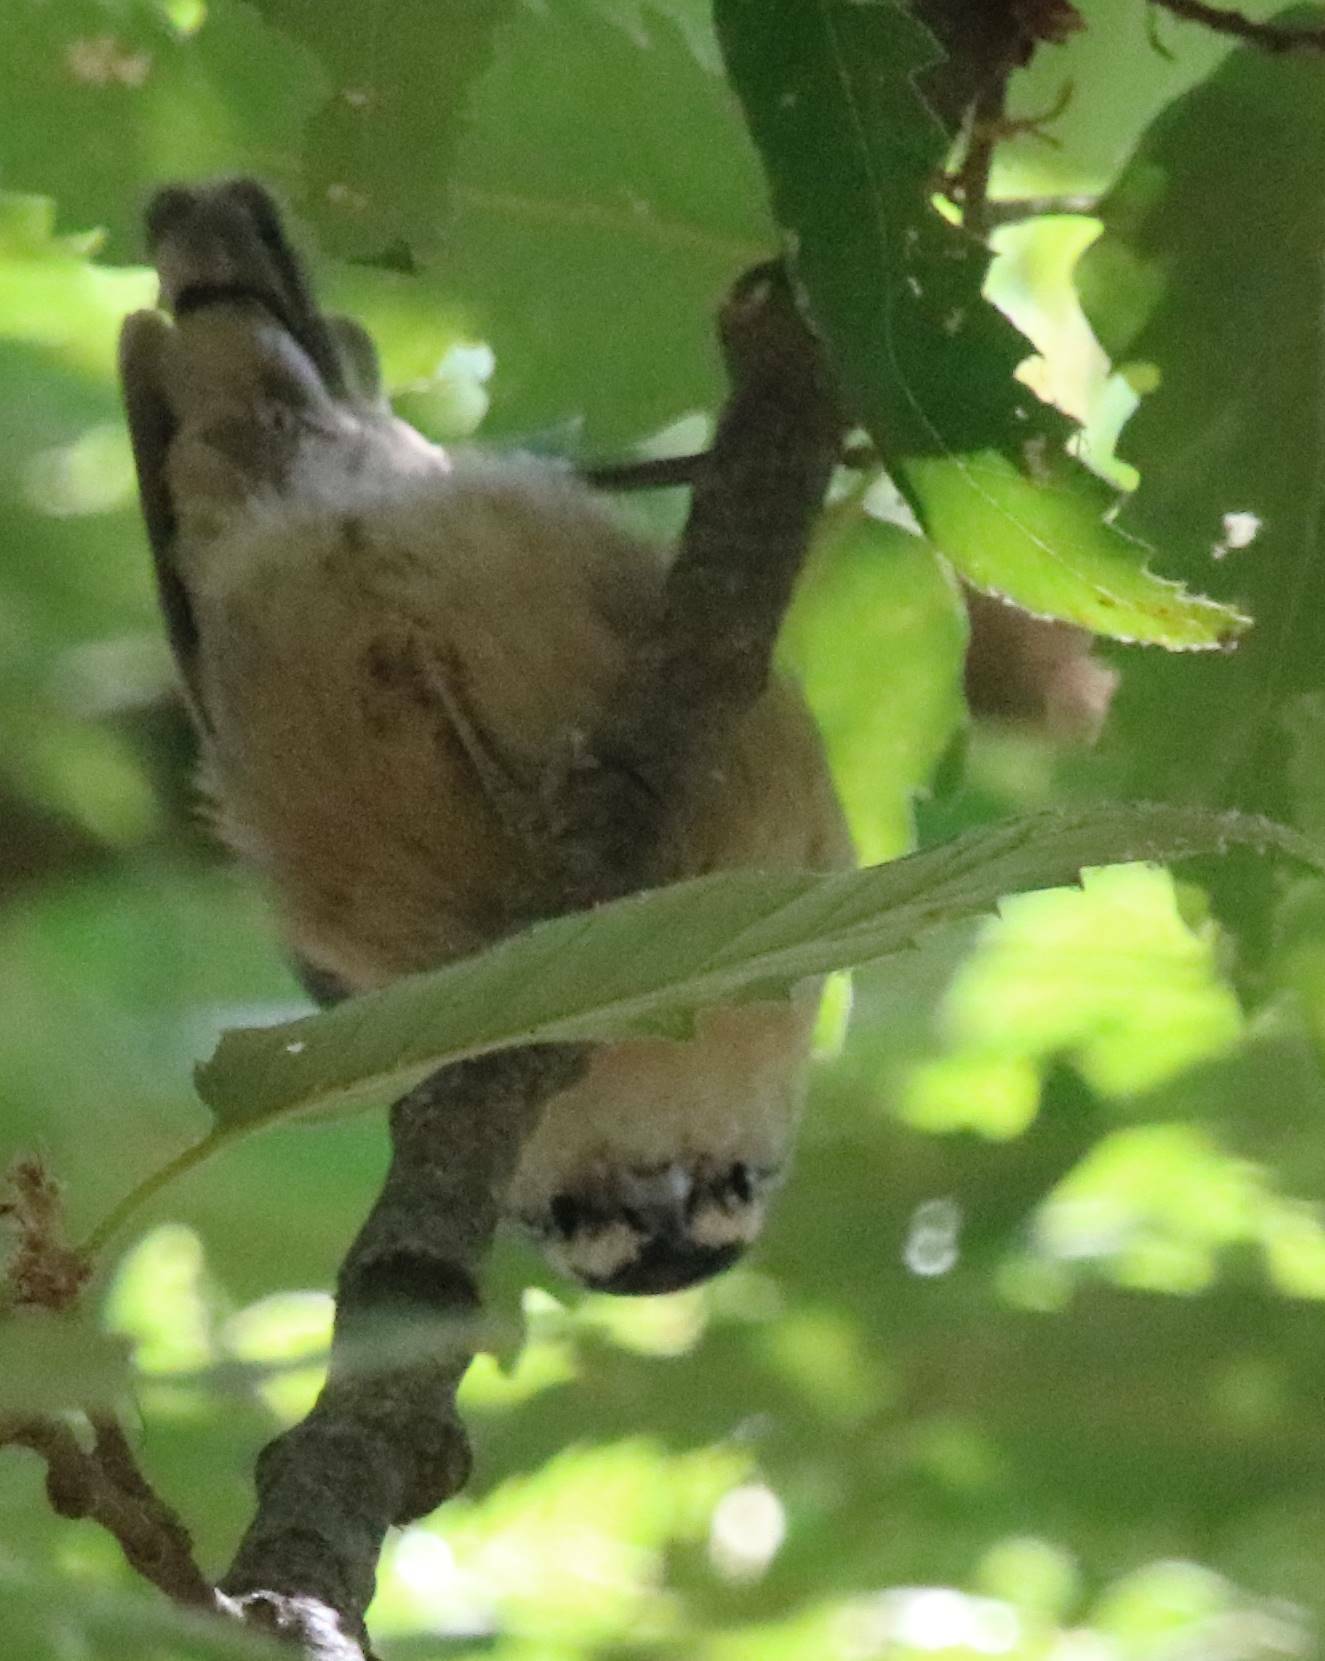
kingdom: Animalia
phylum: Chordata
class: Aves
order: Passeriformes
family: Sittidae
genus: Sitta
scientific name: Sitta ledanti
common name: Algerian nuthatch
